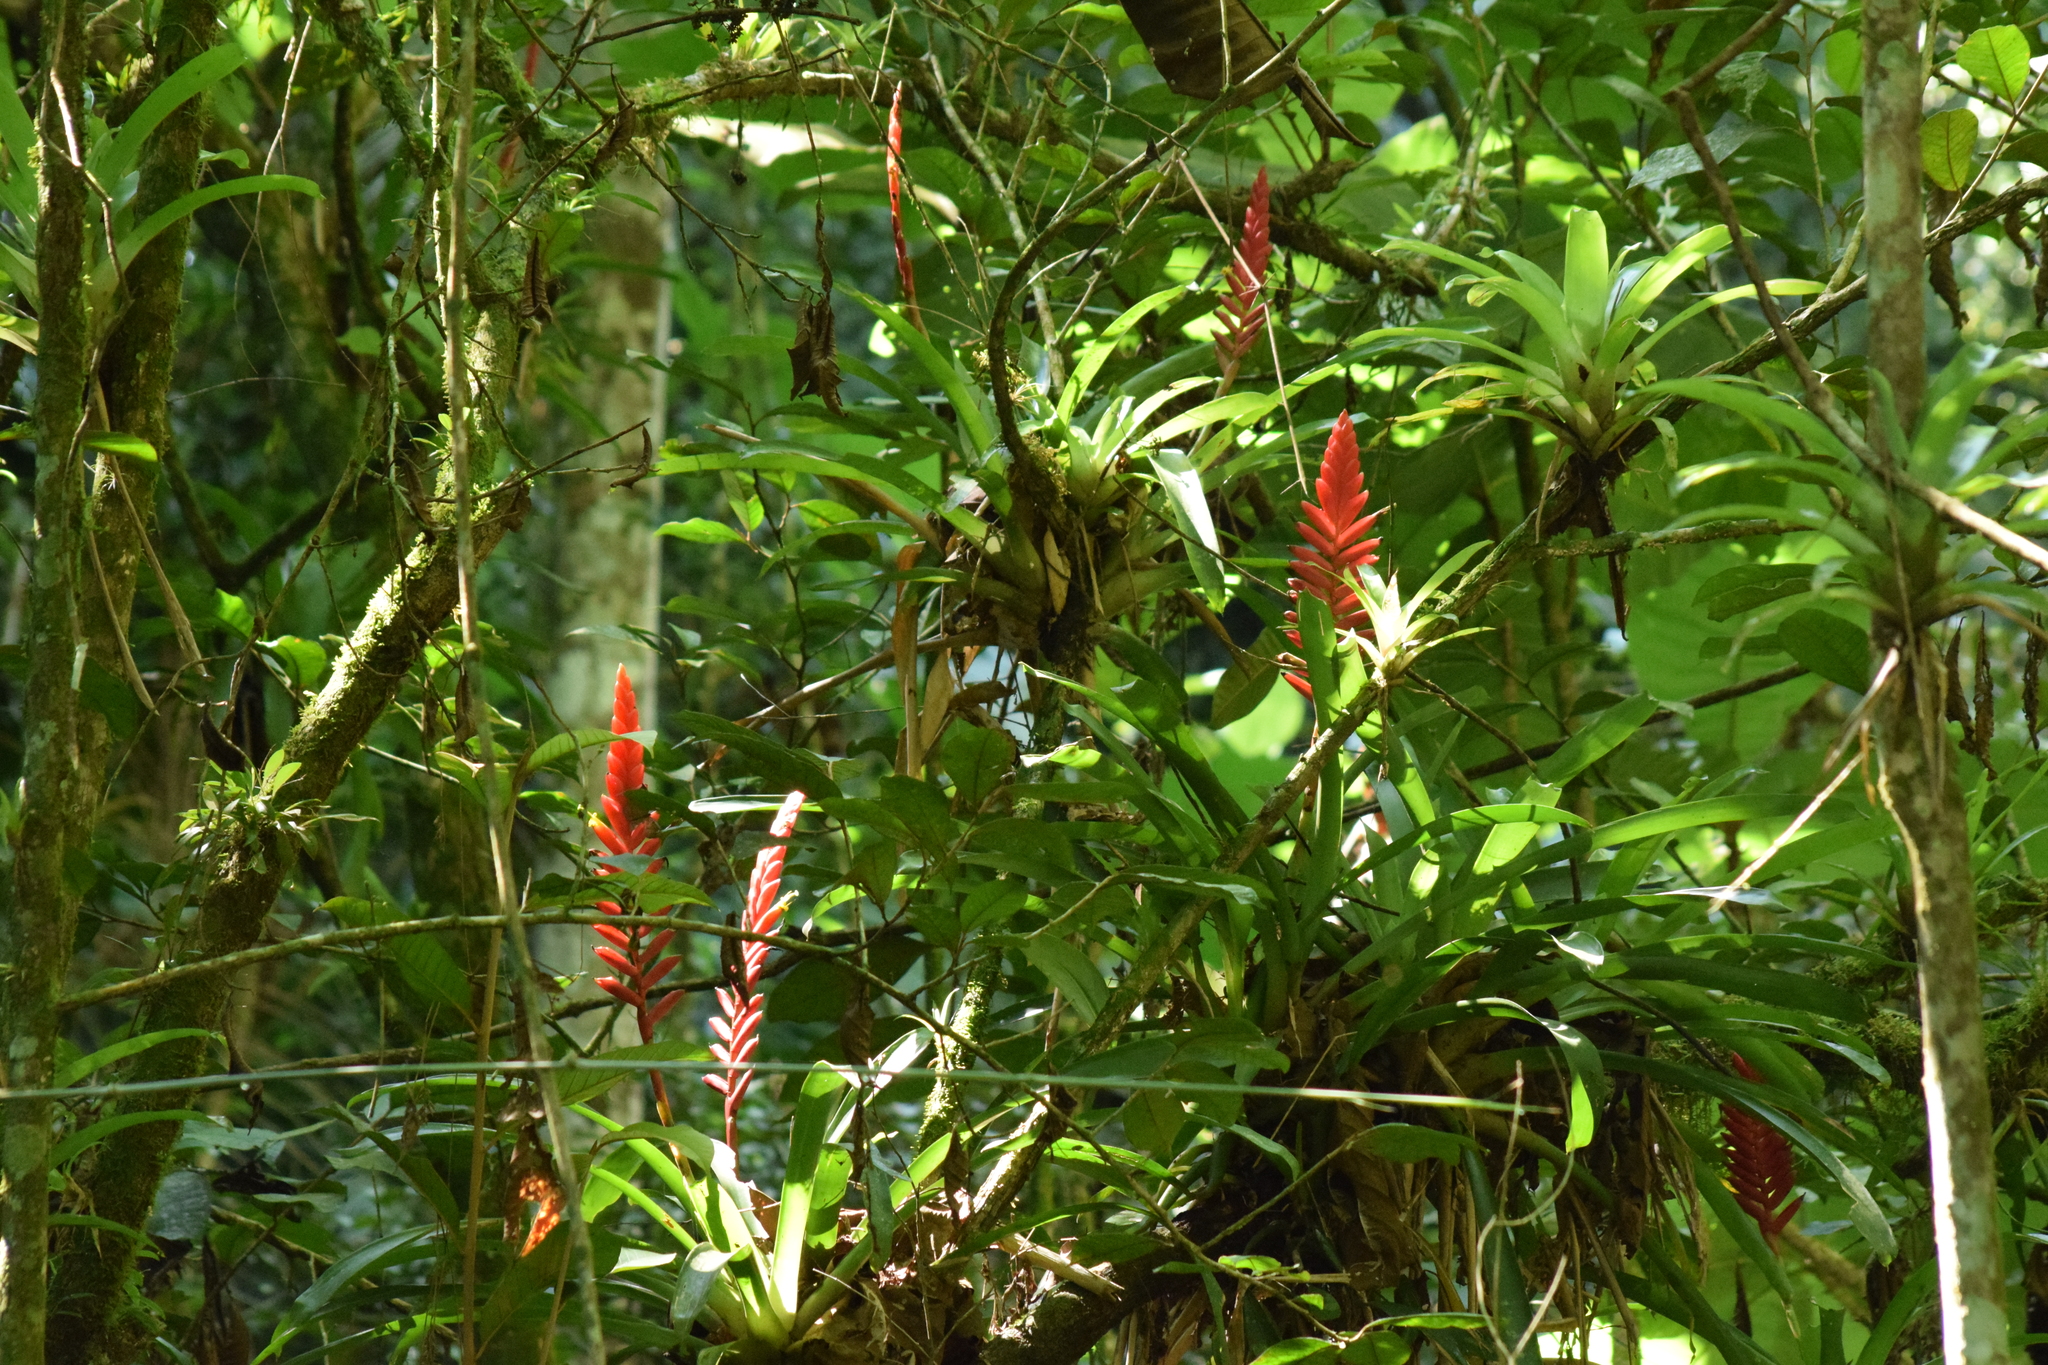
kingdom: Plantae
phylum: Tracheophyta
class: Liliopsida
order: Poales
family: Bromeliaceae
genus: Vriesea
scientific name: Vriesea ensiformis
